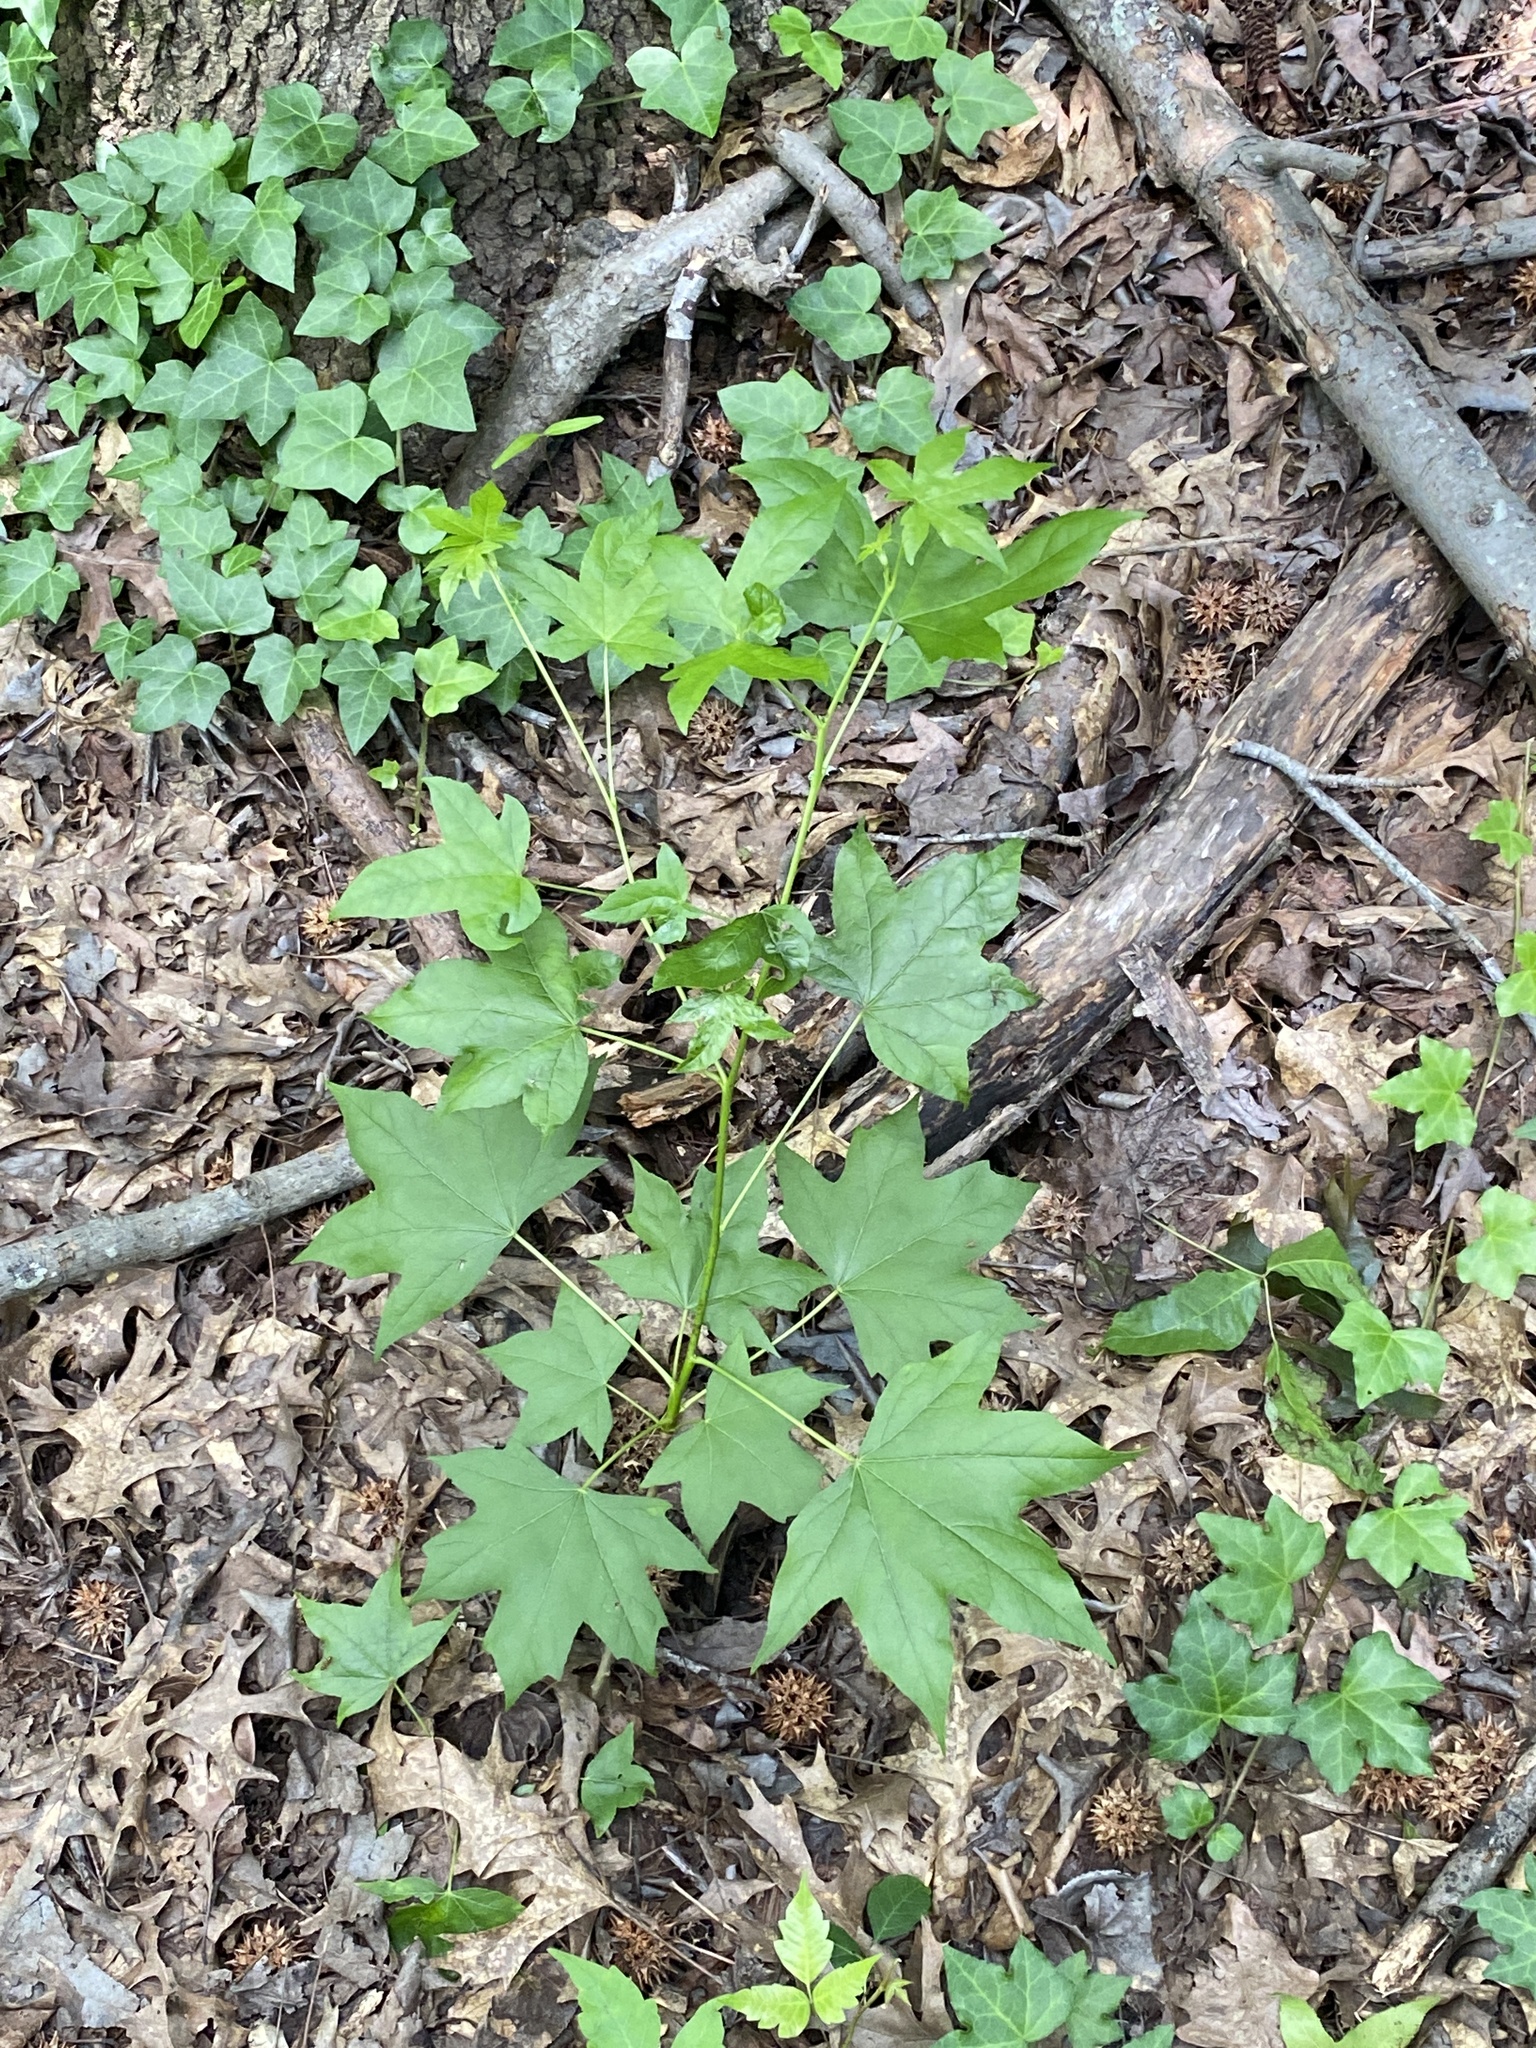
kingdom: Plantae
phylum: Tracheophyta
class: Magnoliopsida
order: Saxifragales
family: Altingiaceae
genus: Liquidambar
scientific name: Liquidambar styraciflua
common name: Sweet gum
